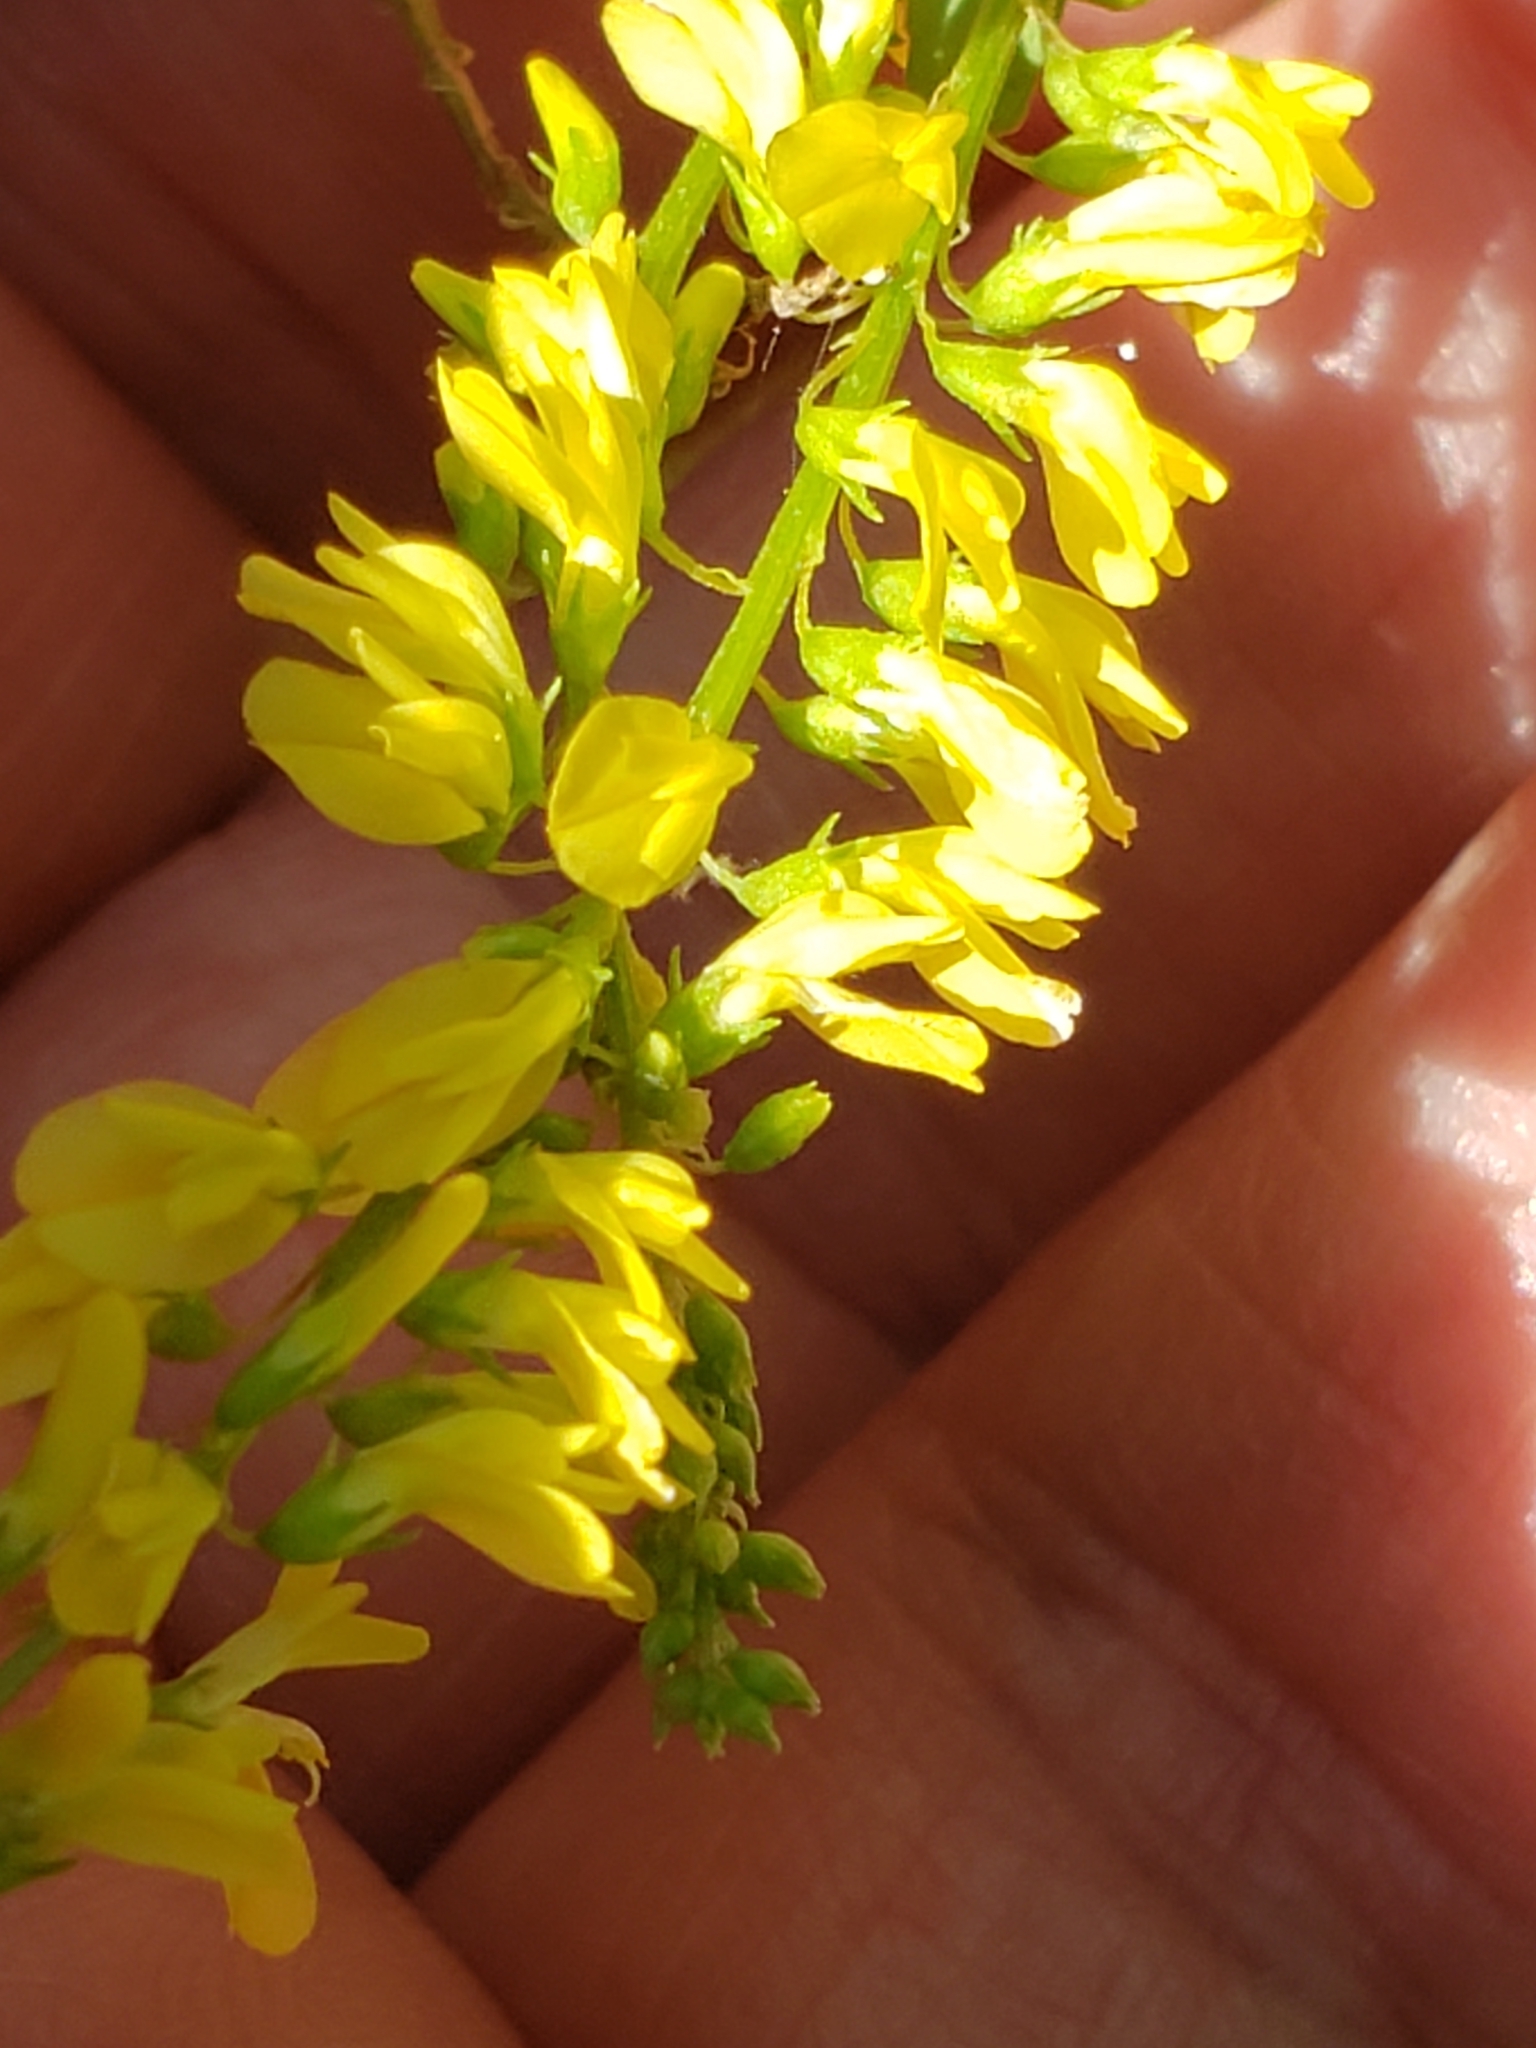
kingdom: Plantae
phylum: Tracheophyta
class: Magnoliopsida
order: Fabales
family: Fabaceae
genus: Melilotus
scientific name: Melilotus officinalis
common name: Sweetclover
